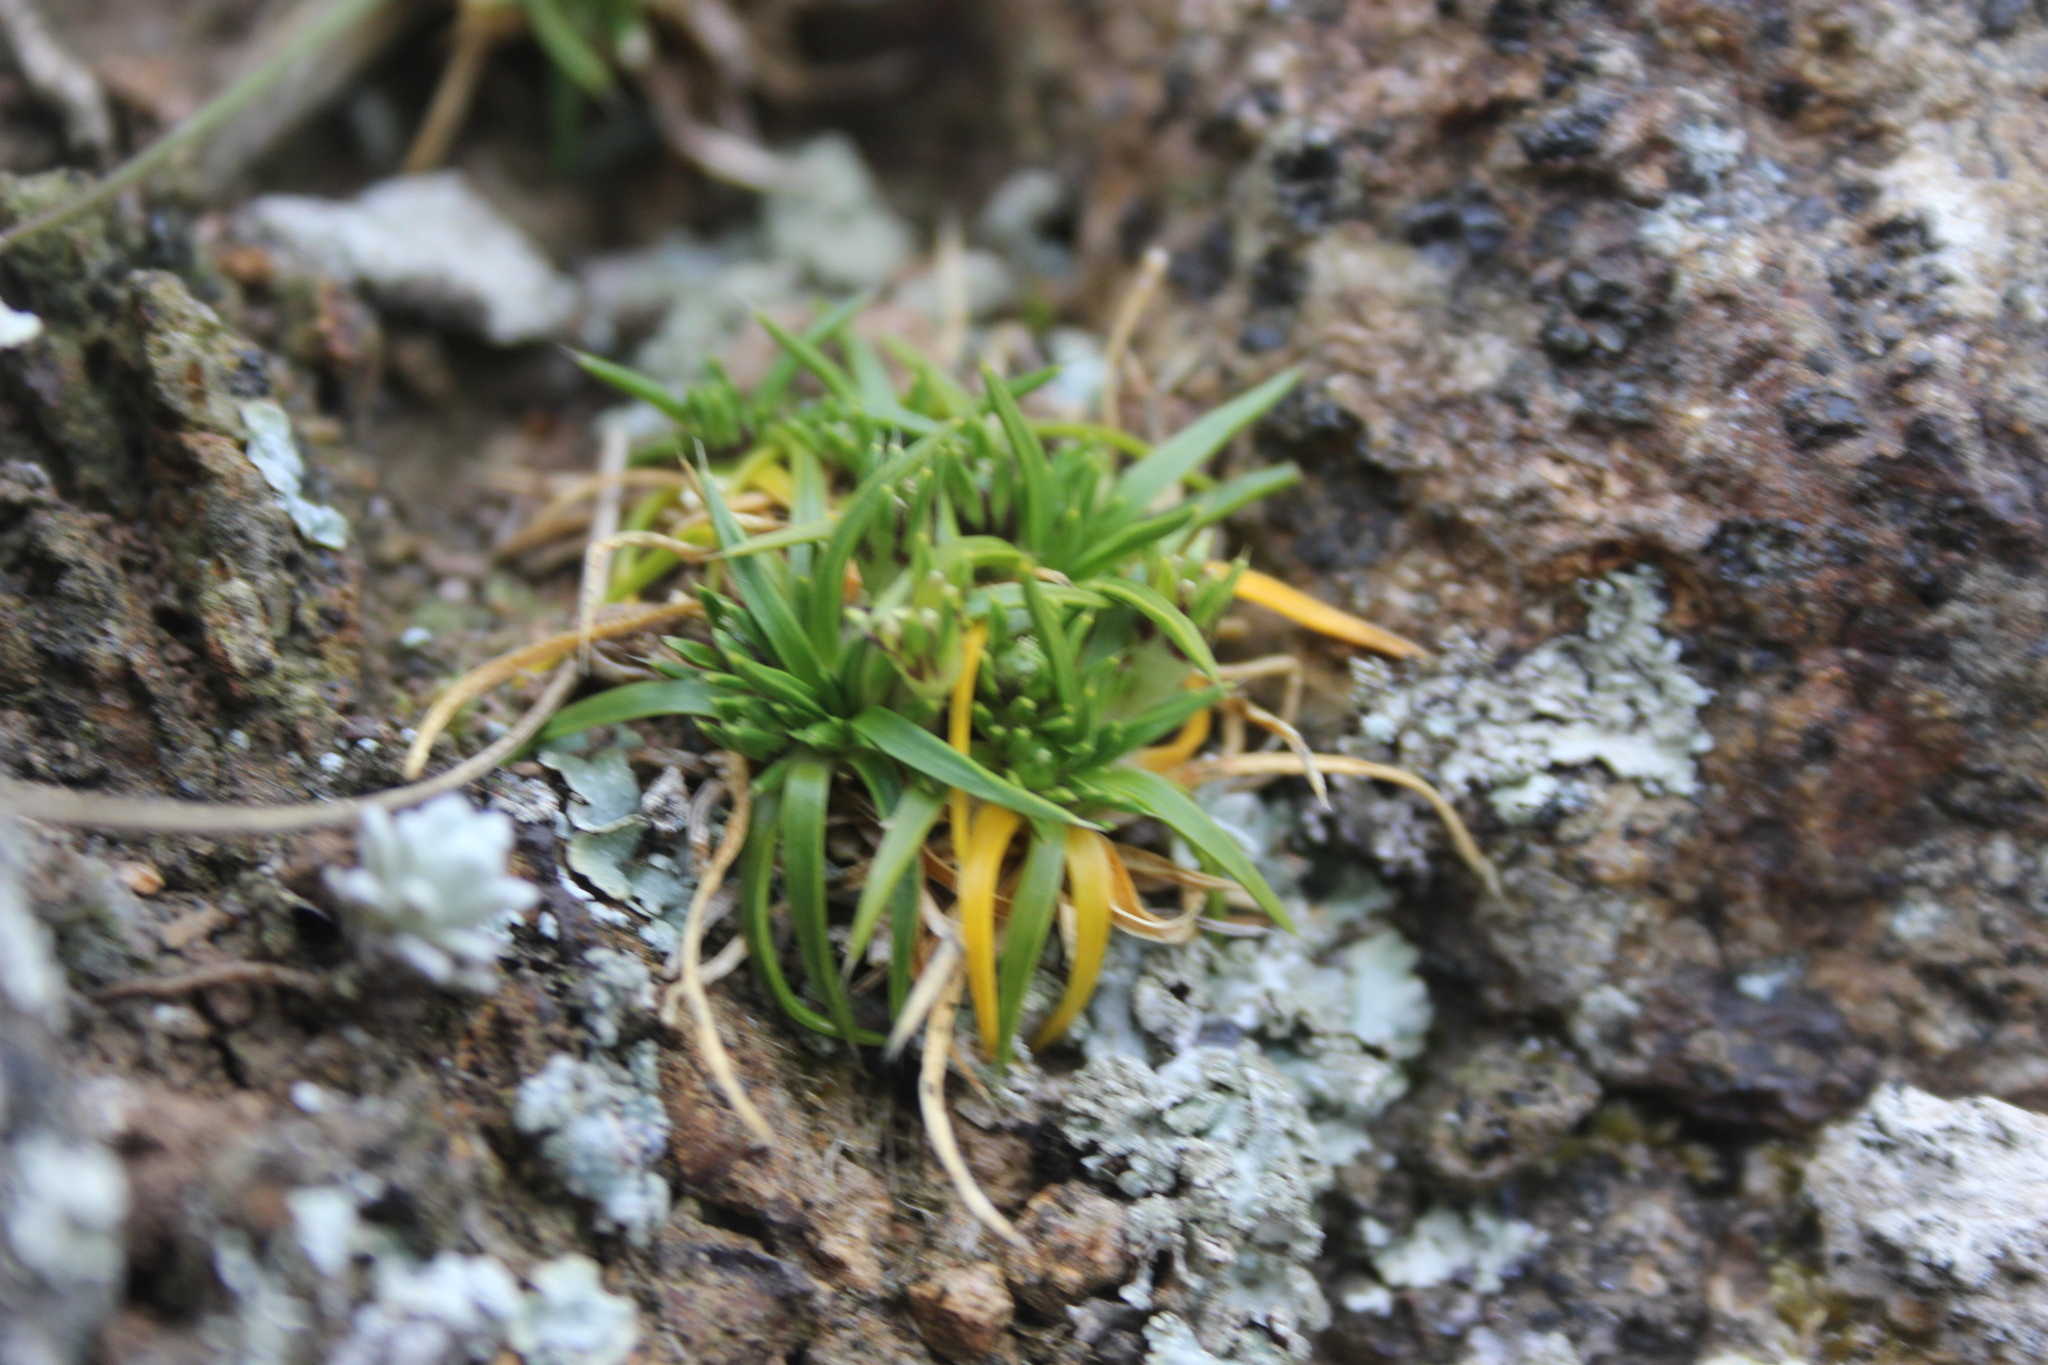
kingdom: Plantae
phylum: Tracheophyta
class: Magnoliopsida
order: Caryophyllales
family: Caryophyllaceae
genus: Colobanthus
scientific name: Colobanthus muelleri
